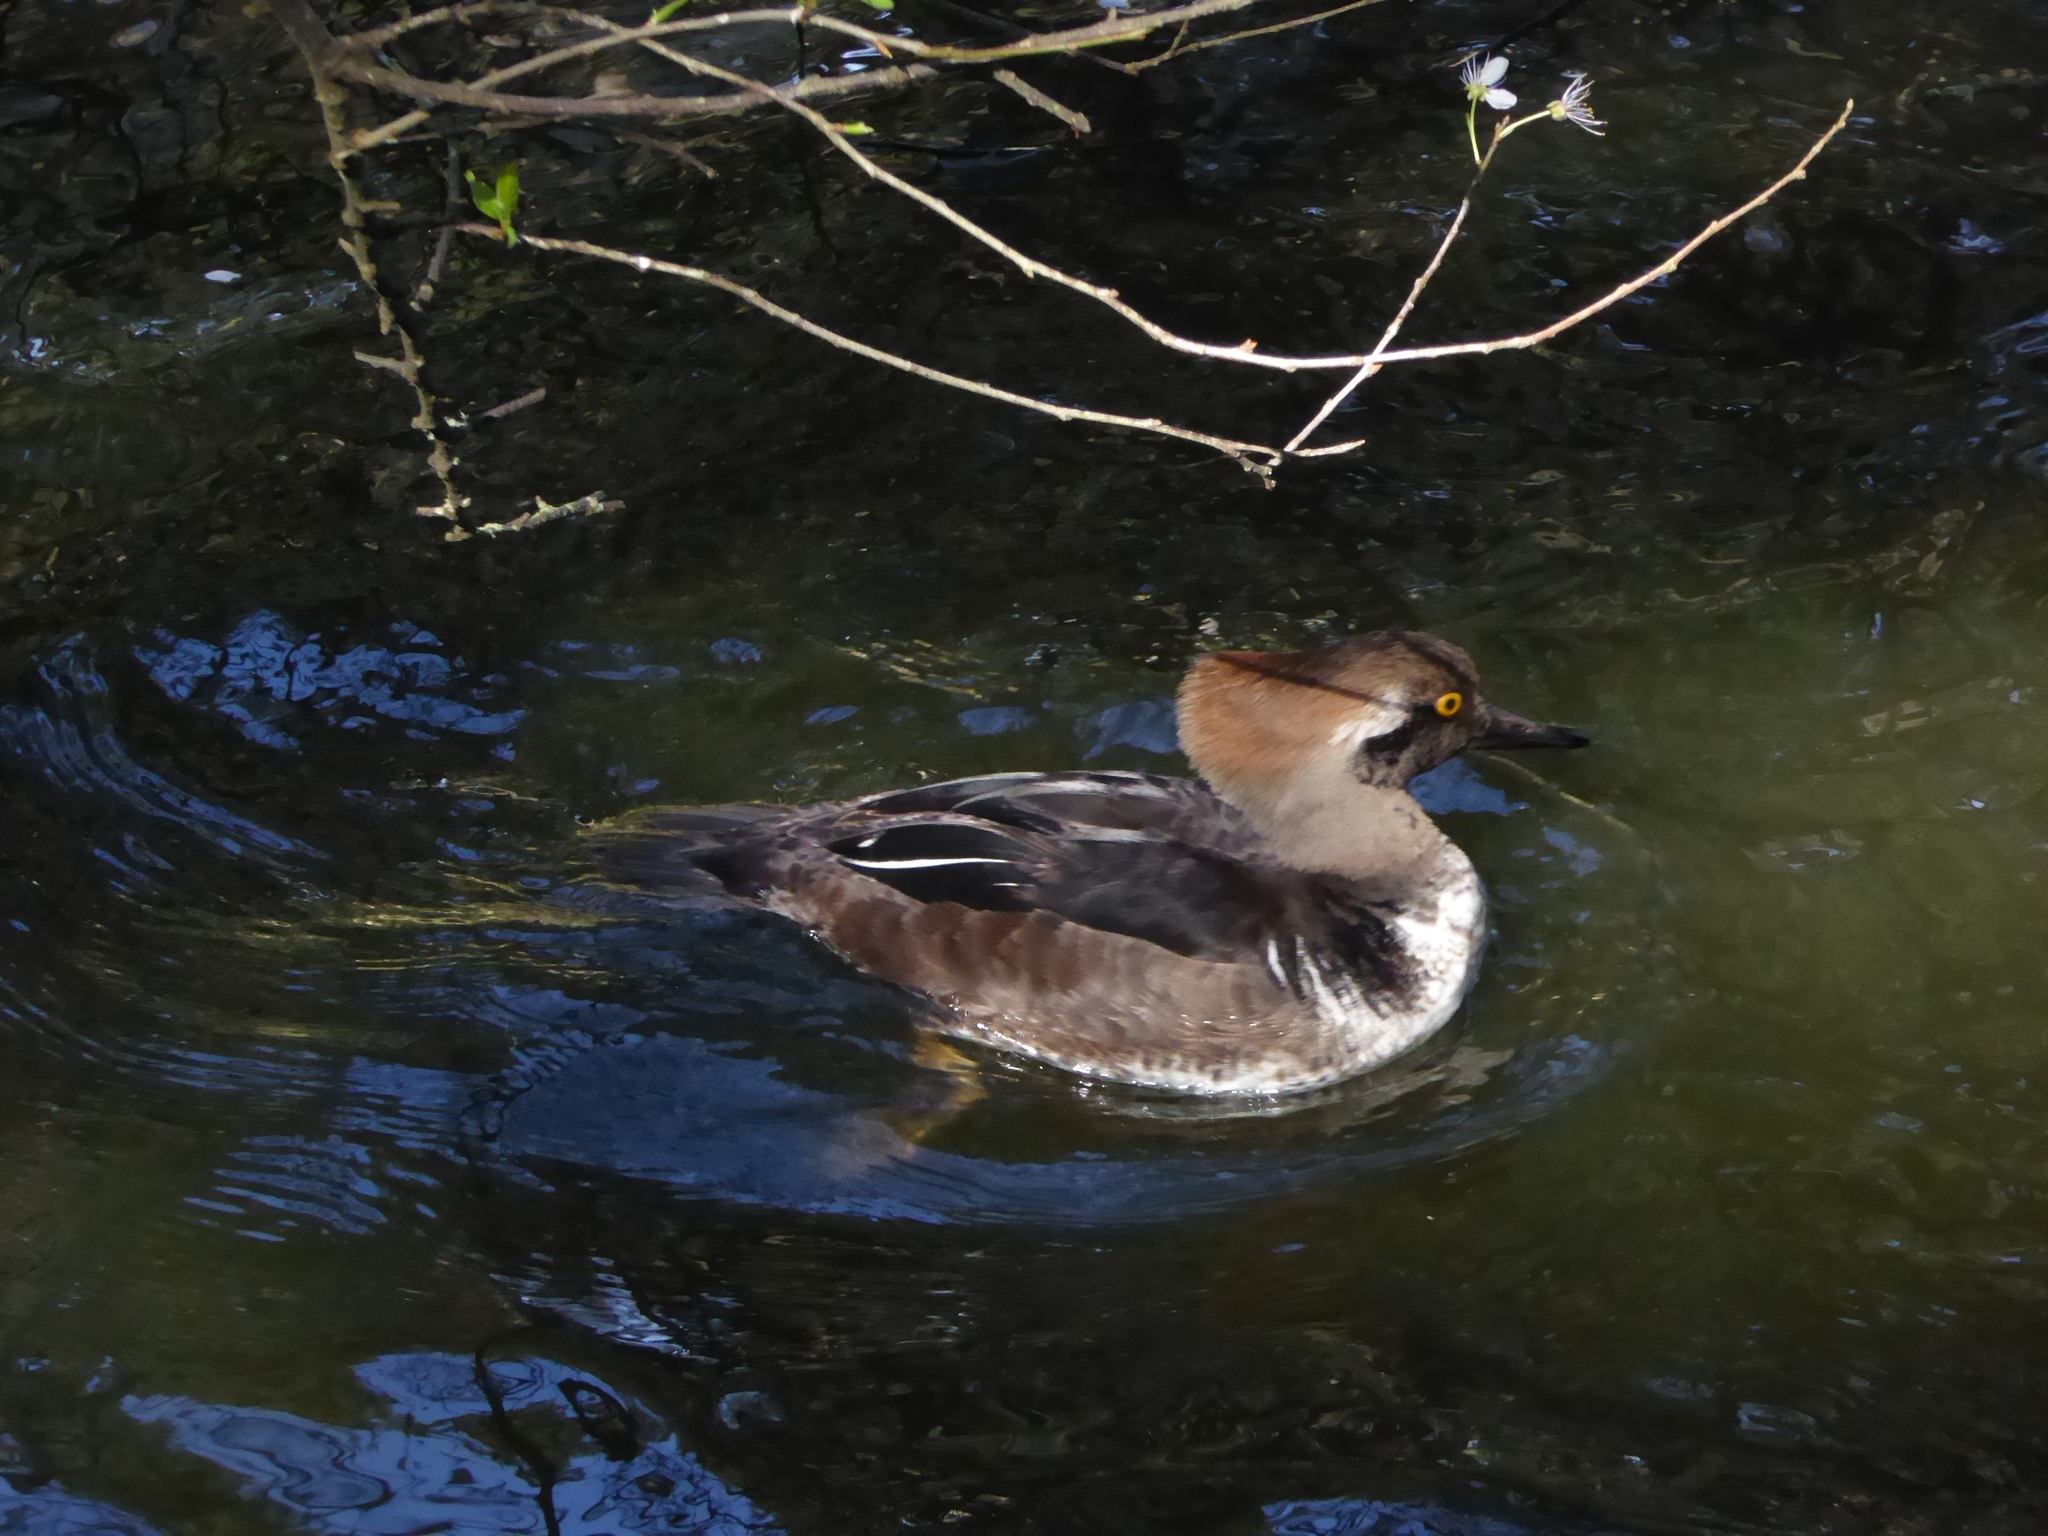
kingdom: Animalia
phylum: Chordata
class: Aves
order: Anseriformes
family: Anatidae
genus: Lophodytes
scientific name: Lophodytes cucullatus
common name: Hooded merganser
